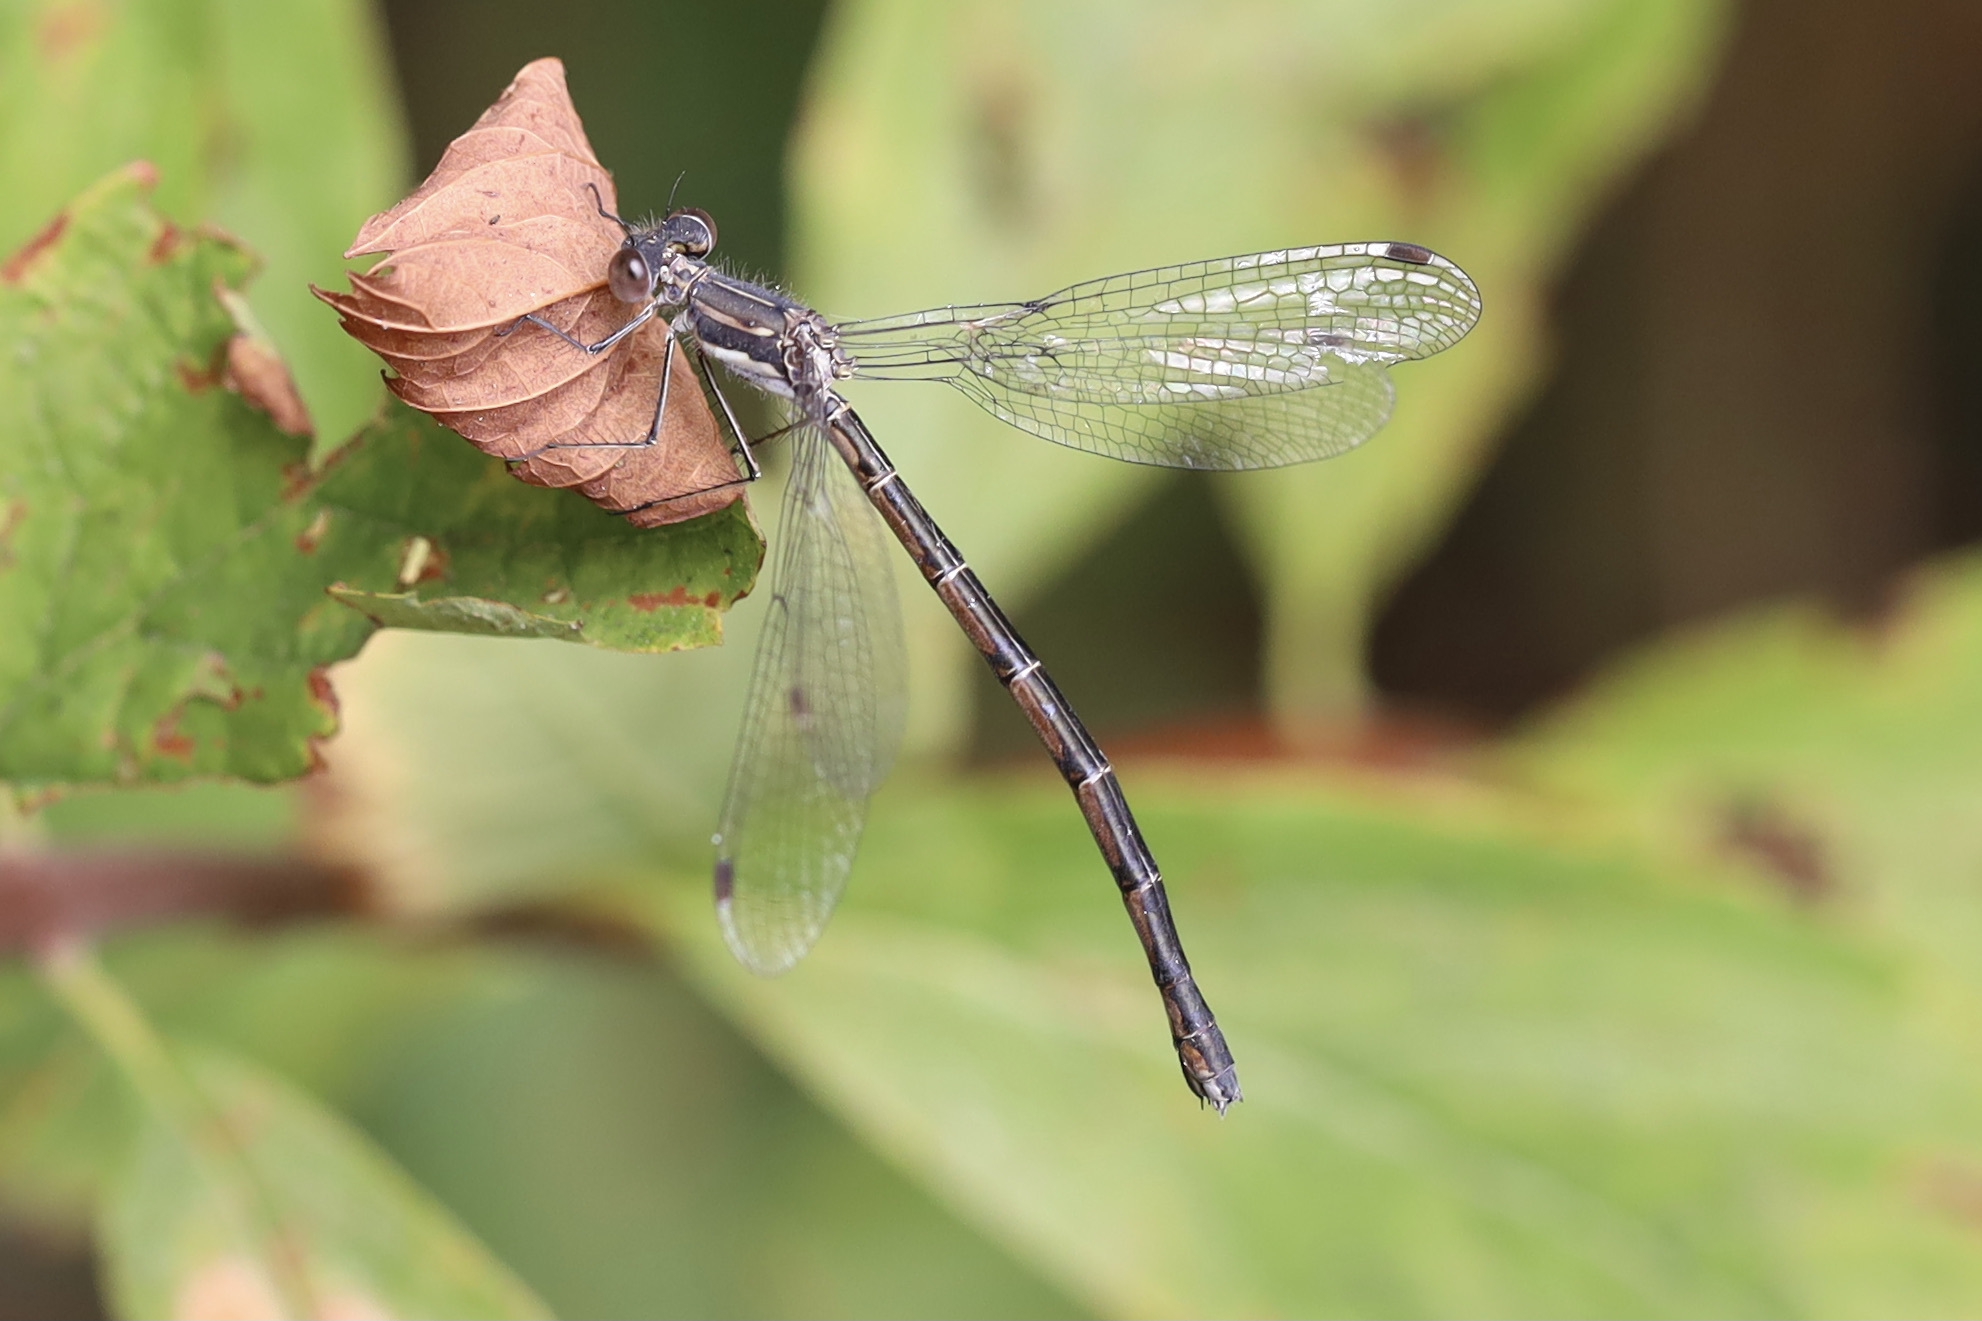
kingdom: Animalia
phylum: Arthropoda
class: Insecta
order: Odonata
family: Lestidae
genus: Lestes
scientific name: Lestes congener
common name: Spotted spreadwing
